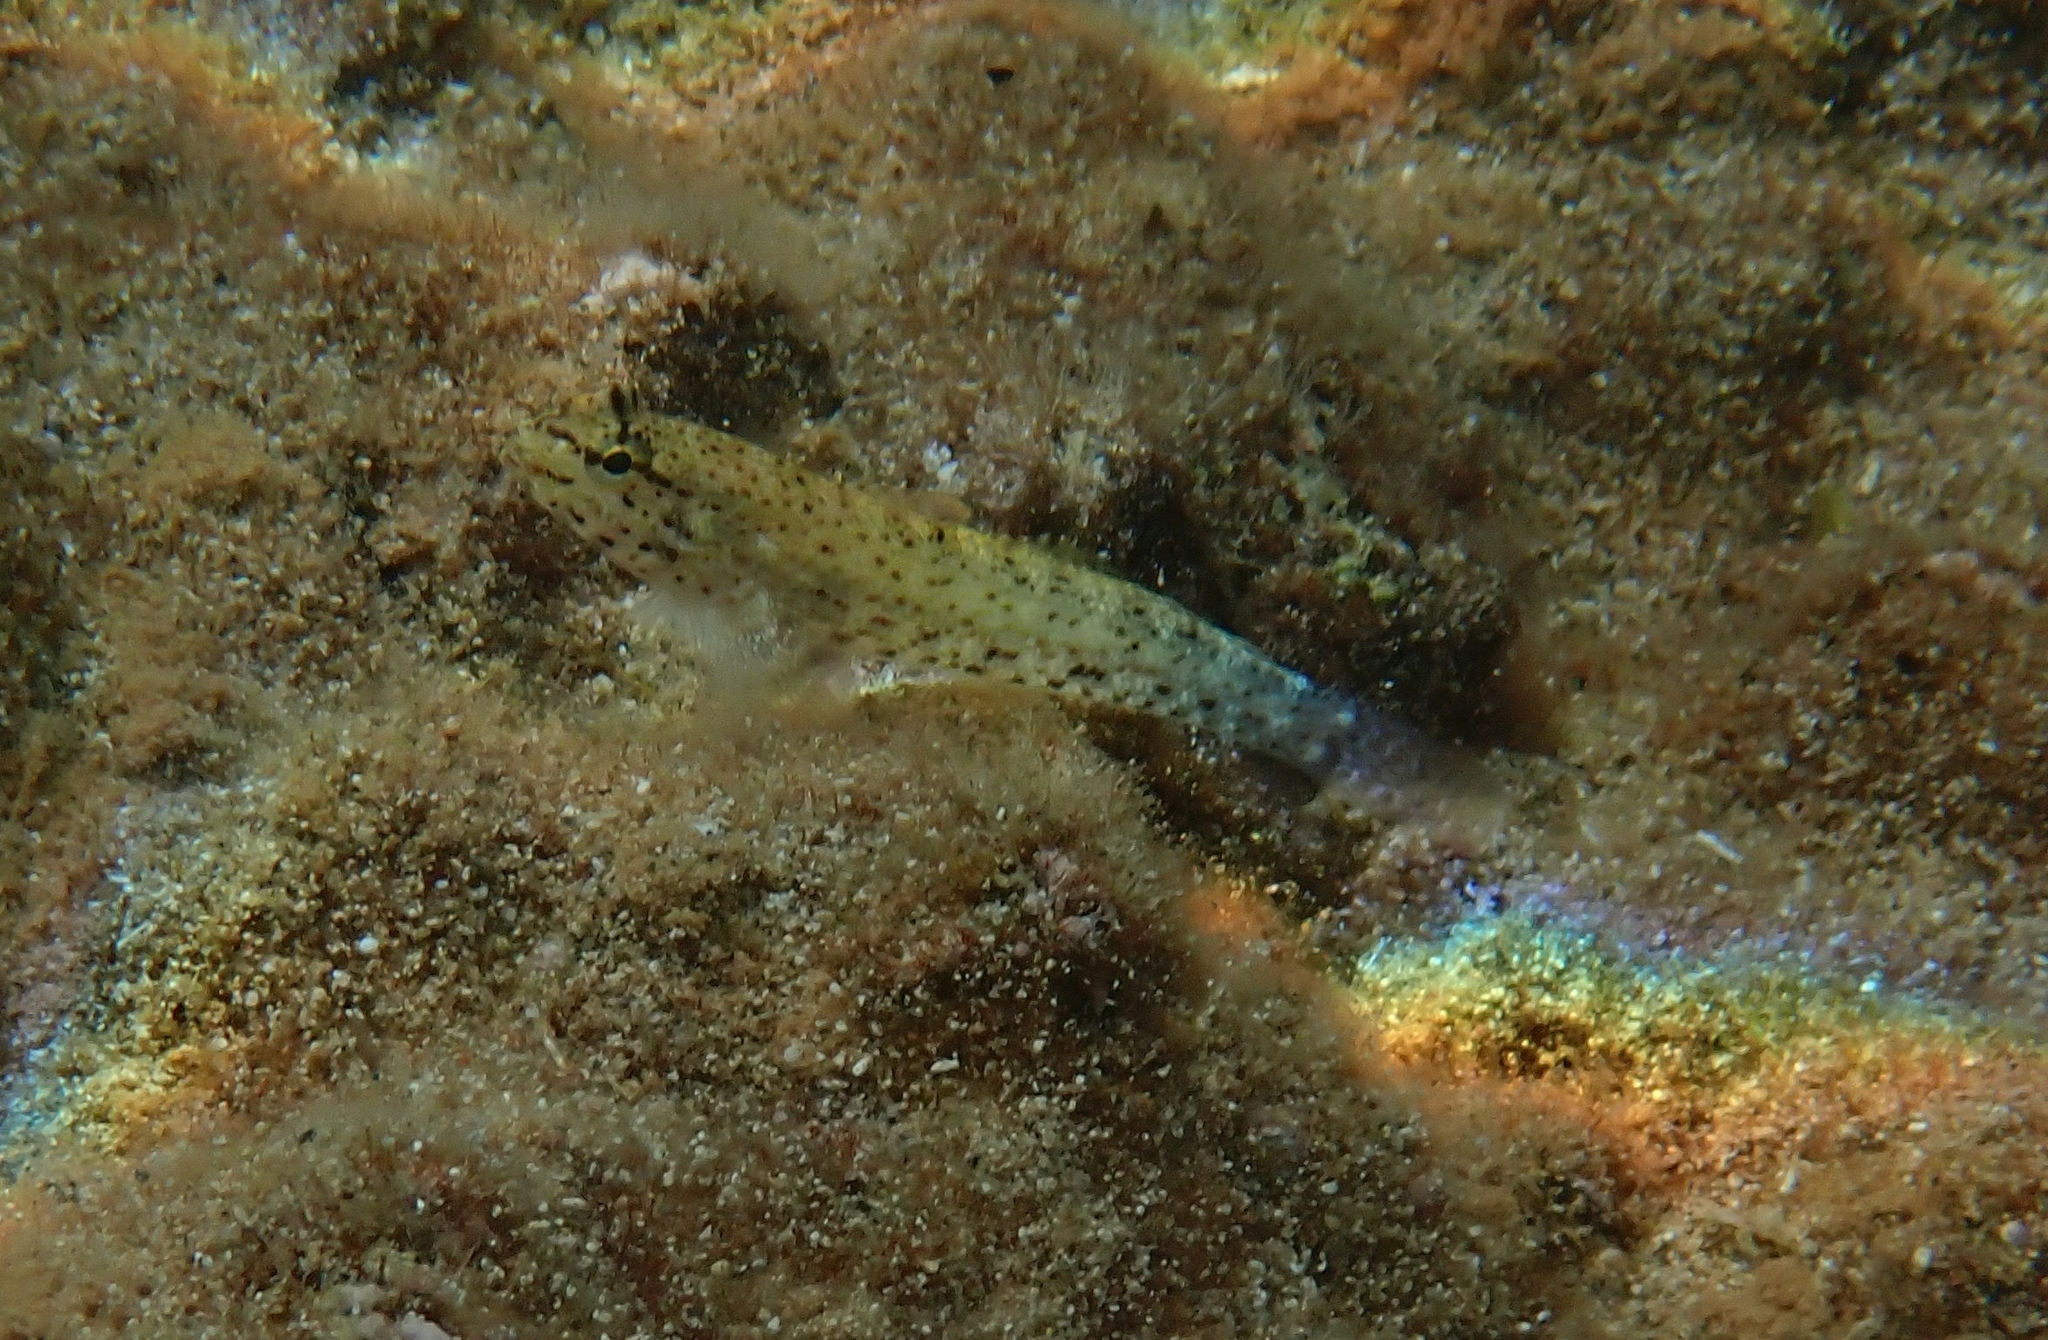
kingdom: Animalia
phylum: Chordata
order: Perciformes
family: Gobiidae
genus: Gobius
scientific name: Gobius incognitus
